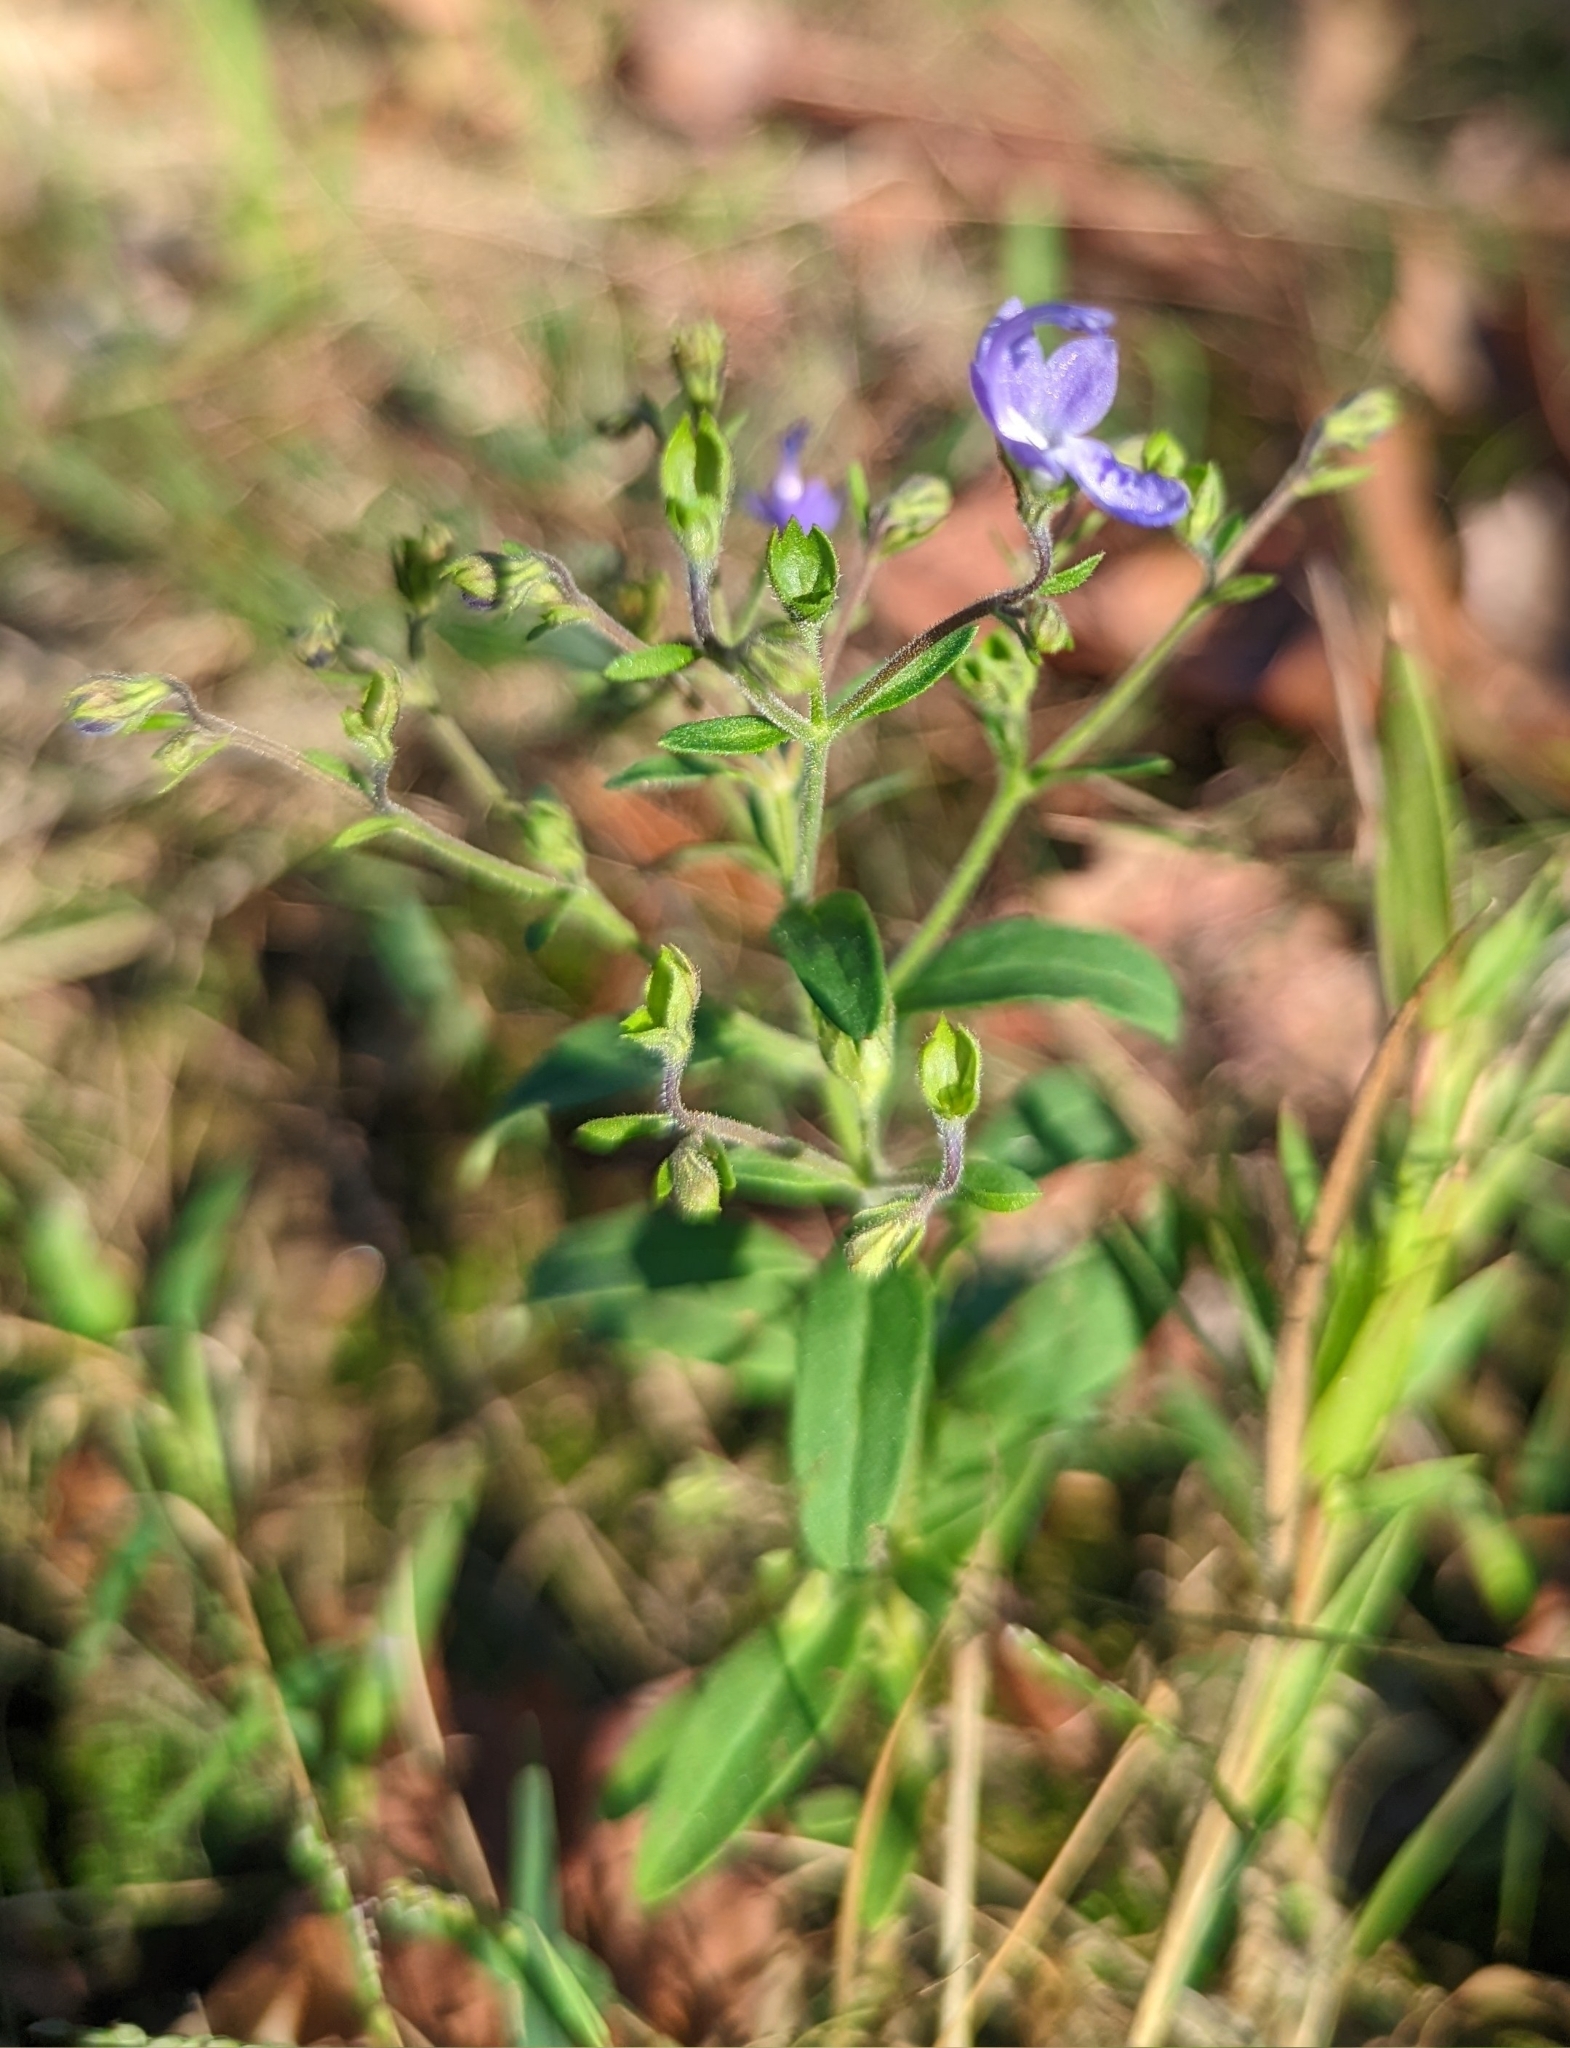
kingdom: Plantae
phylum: Tracheophyta
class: Magnoliopsida
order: Lamiales
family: Lamiaceae
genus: Trichostema
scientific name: Trichostema dichotomum
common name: Bastard pennyroyal
